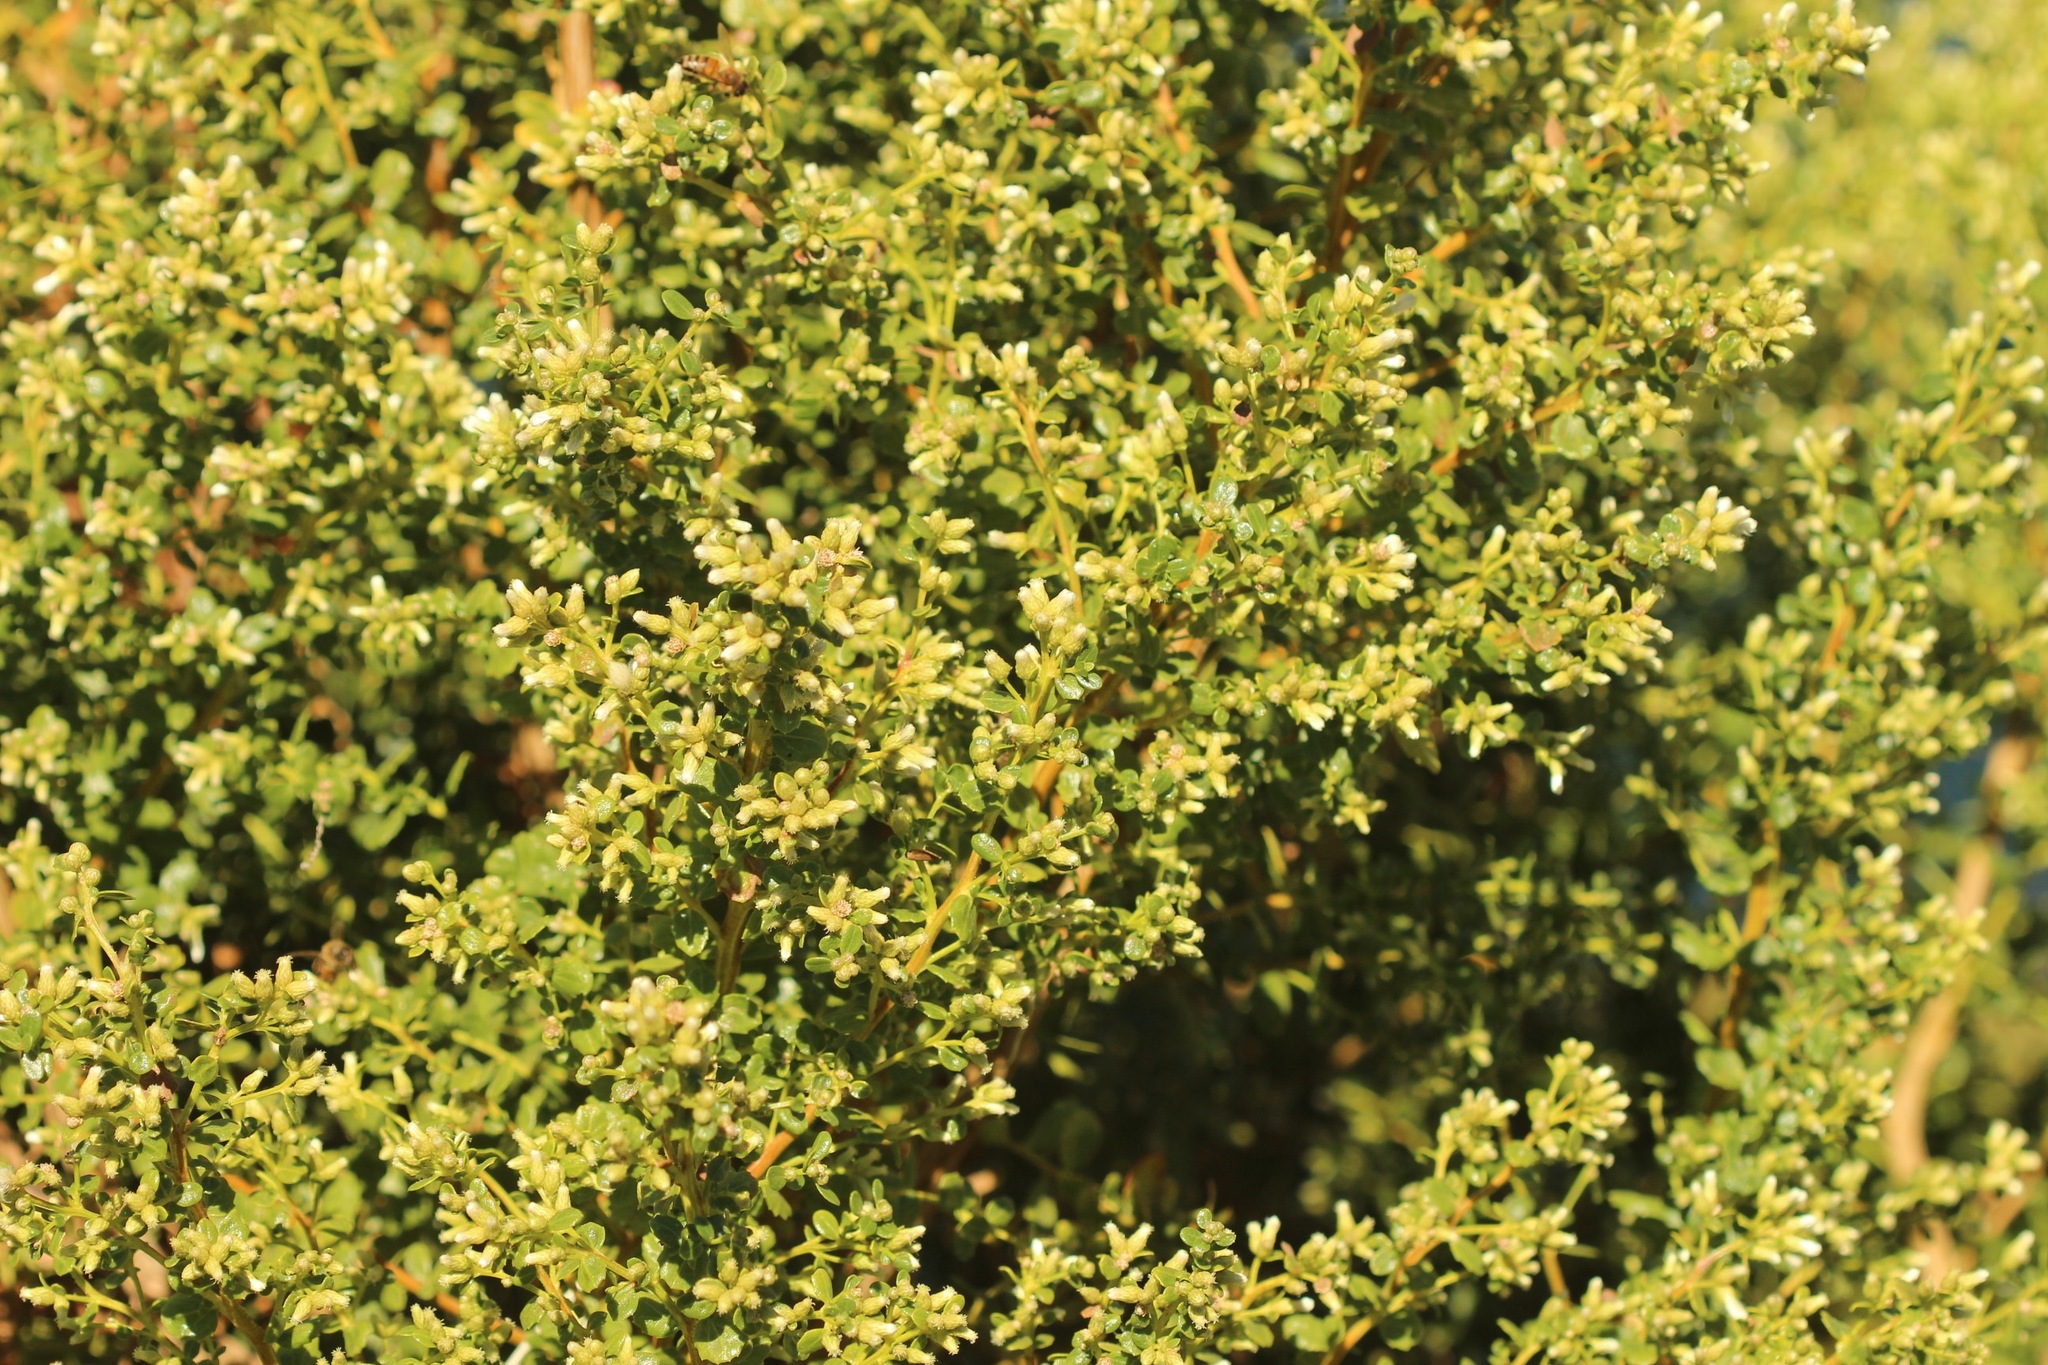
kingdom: Plantae
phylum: Tracheophyta
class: Magnoliopsida
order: Asterales
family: Asteraceae
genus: Baccharis
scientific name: Baccharis pilularis
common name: Coyotebrush
